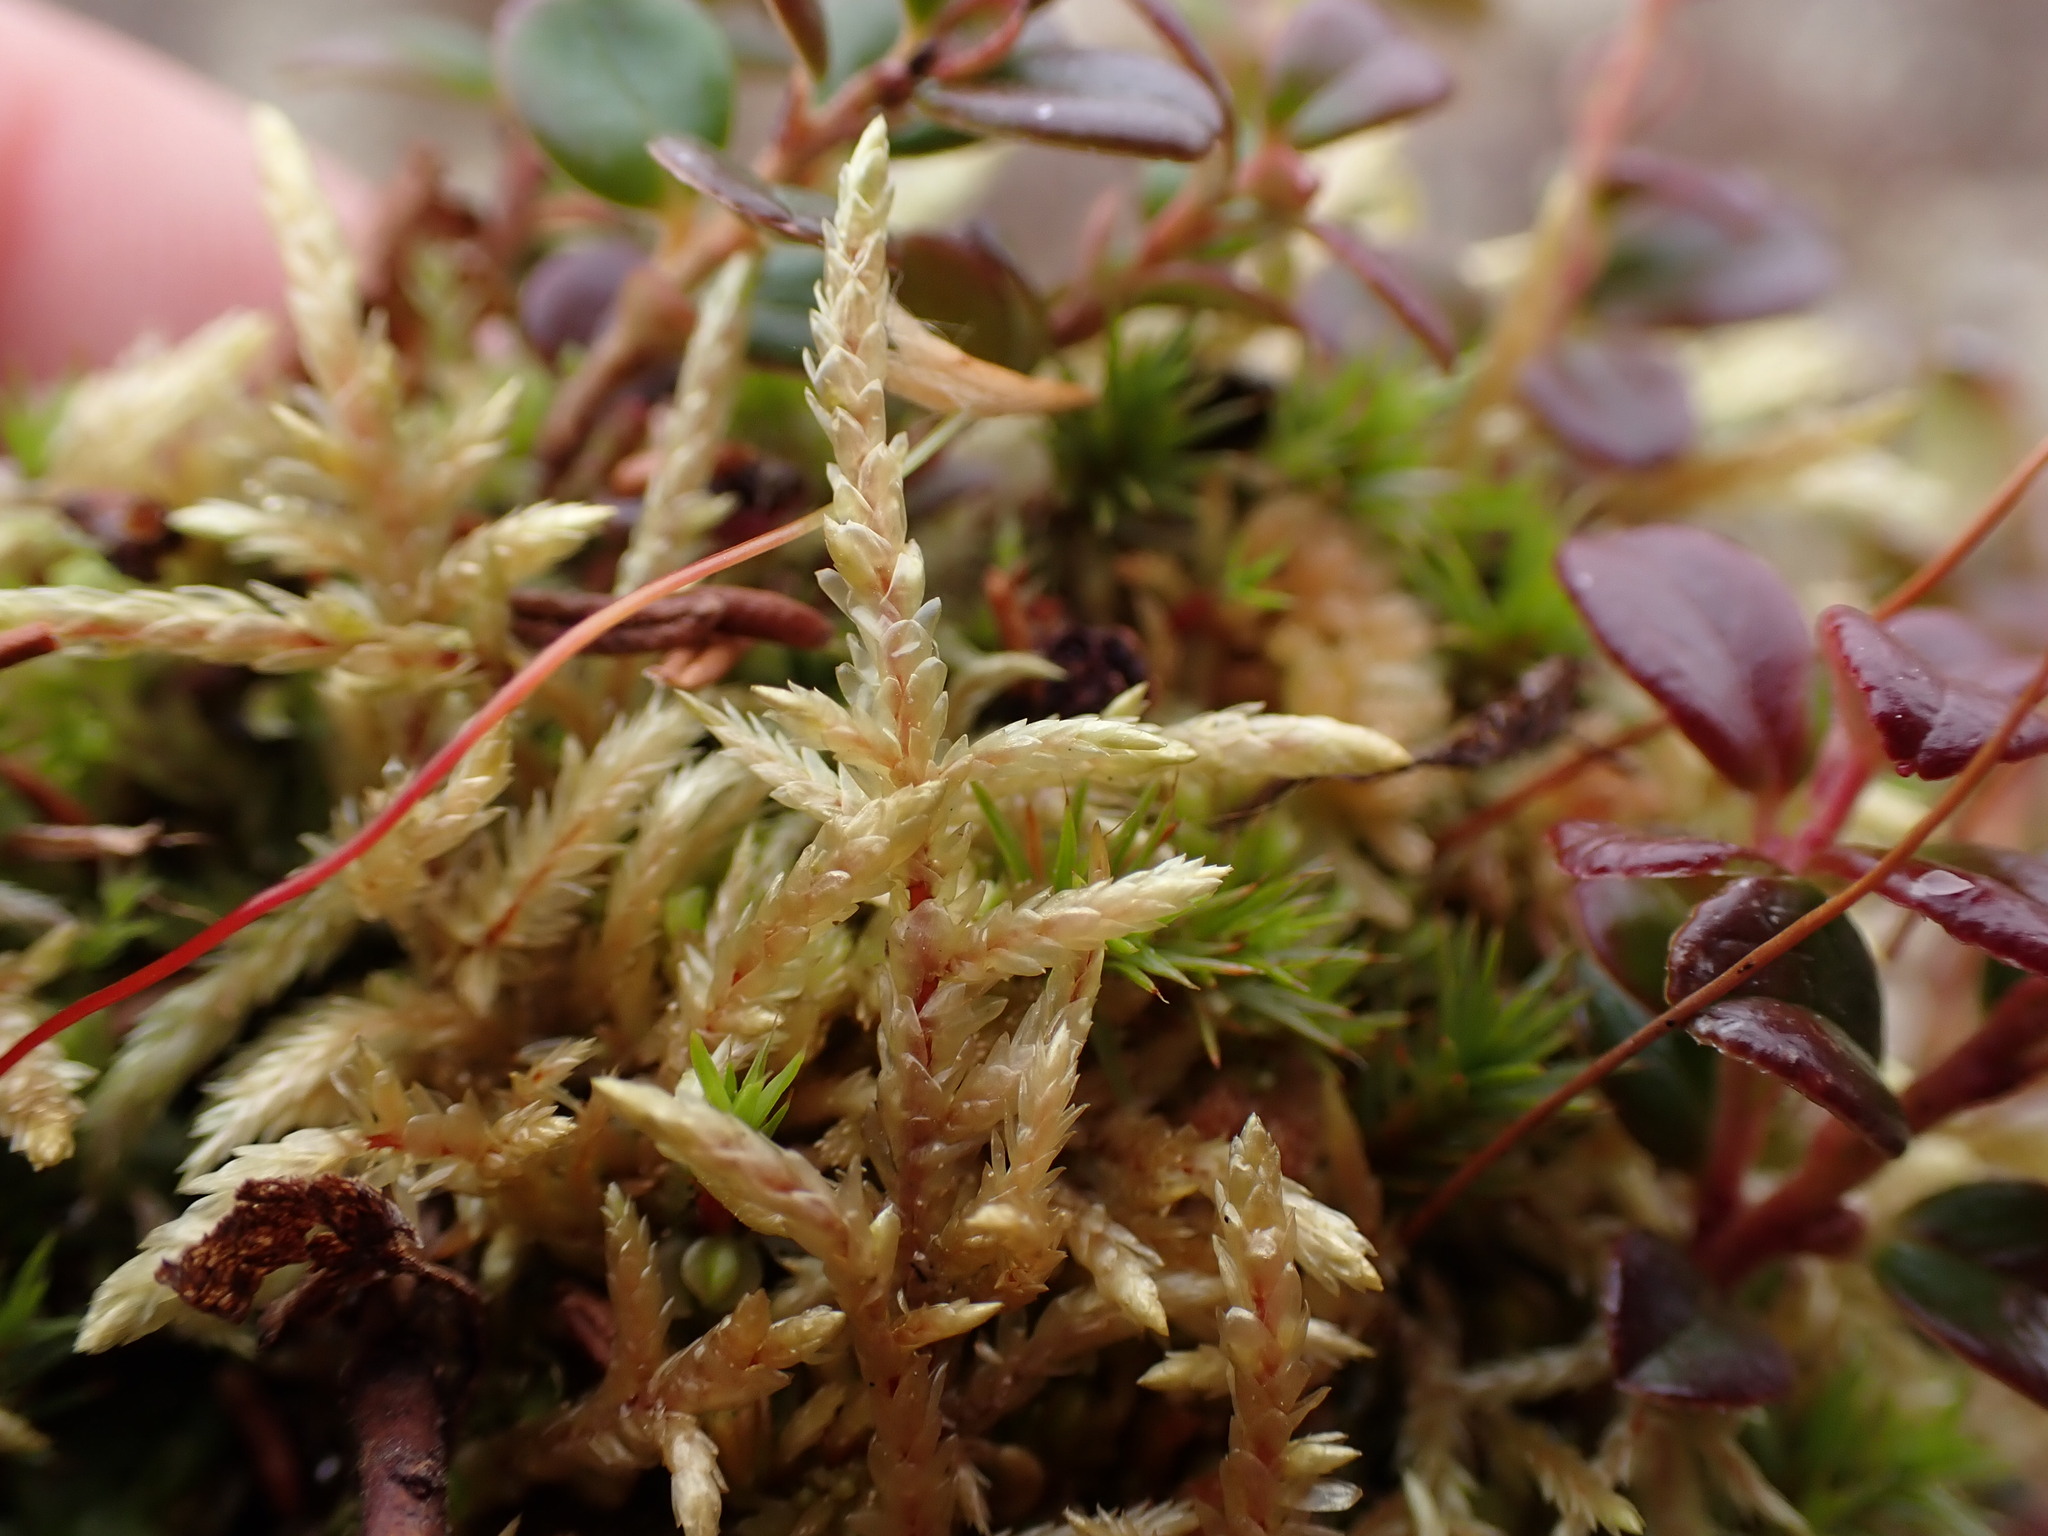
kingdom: Plantae
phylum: Bryophyta
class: Bryopsida
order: Hypnales
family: Hylocomiaceae
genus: Pleurozium
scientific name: Pleurozium schreberi
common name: Red-stemmed feather moss
